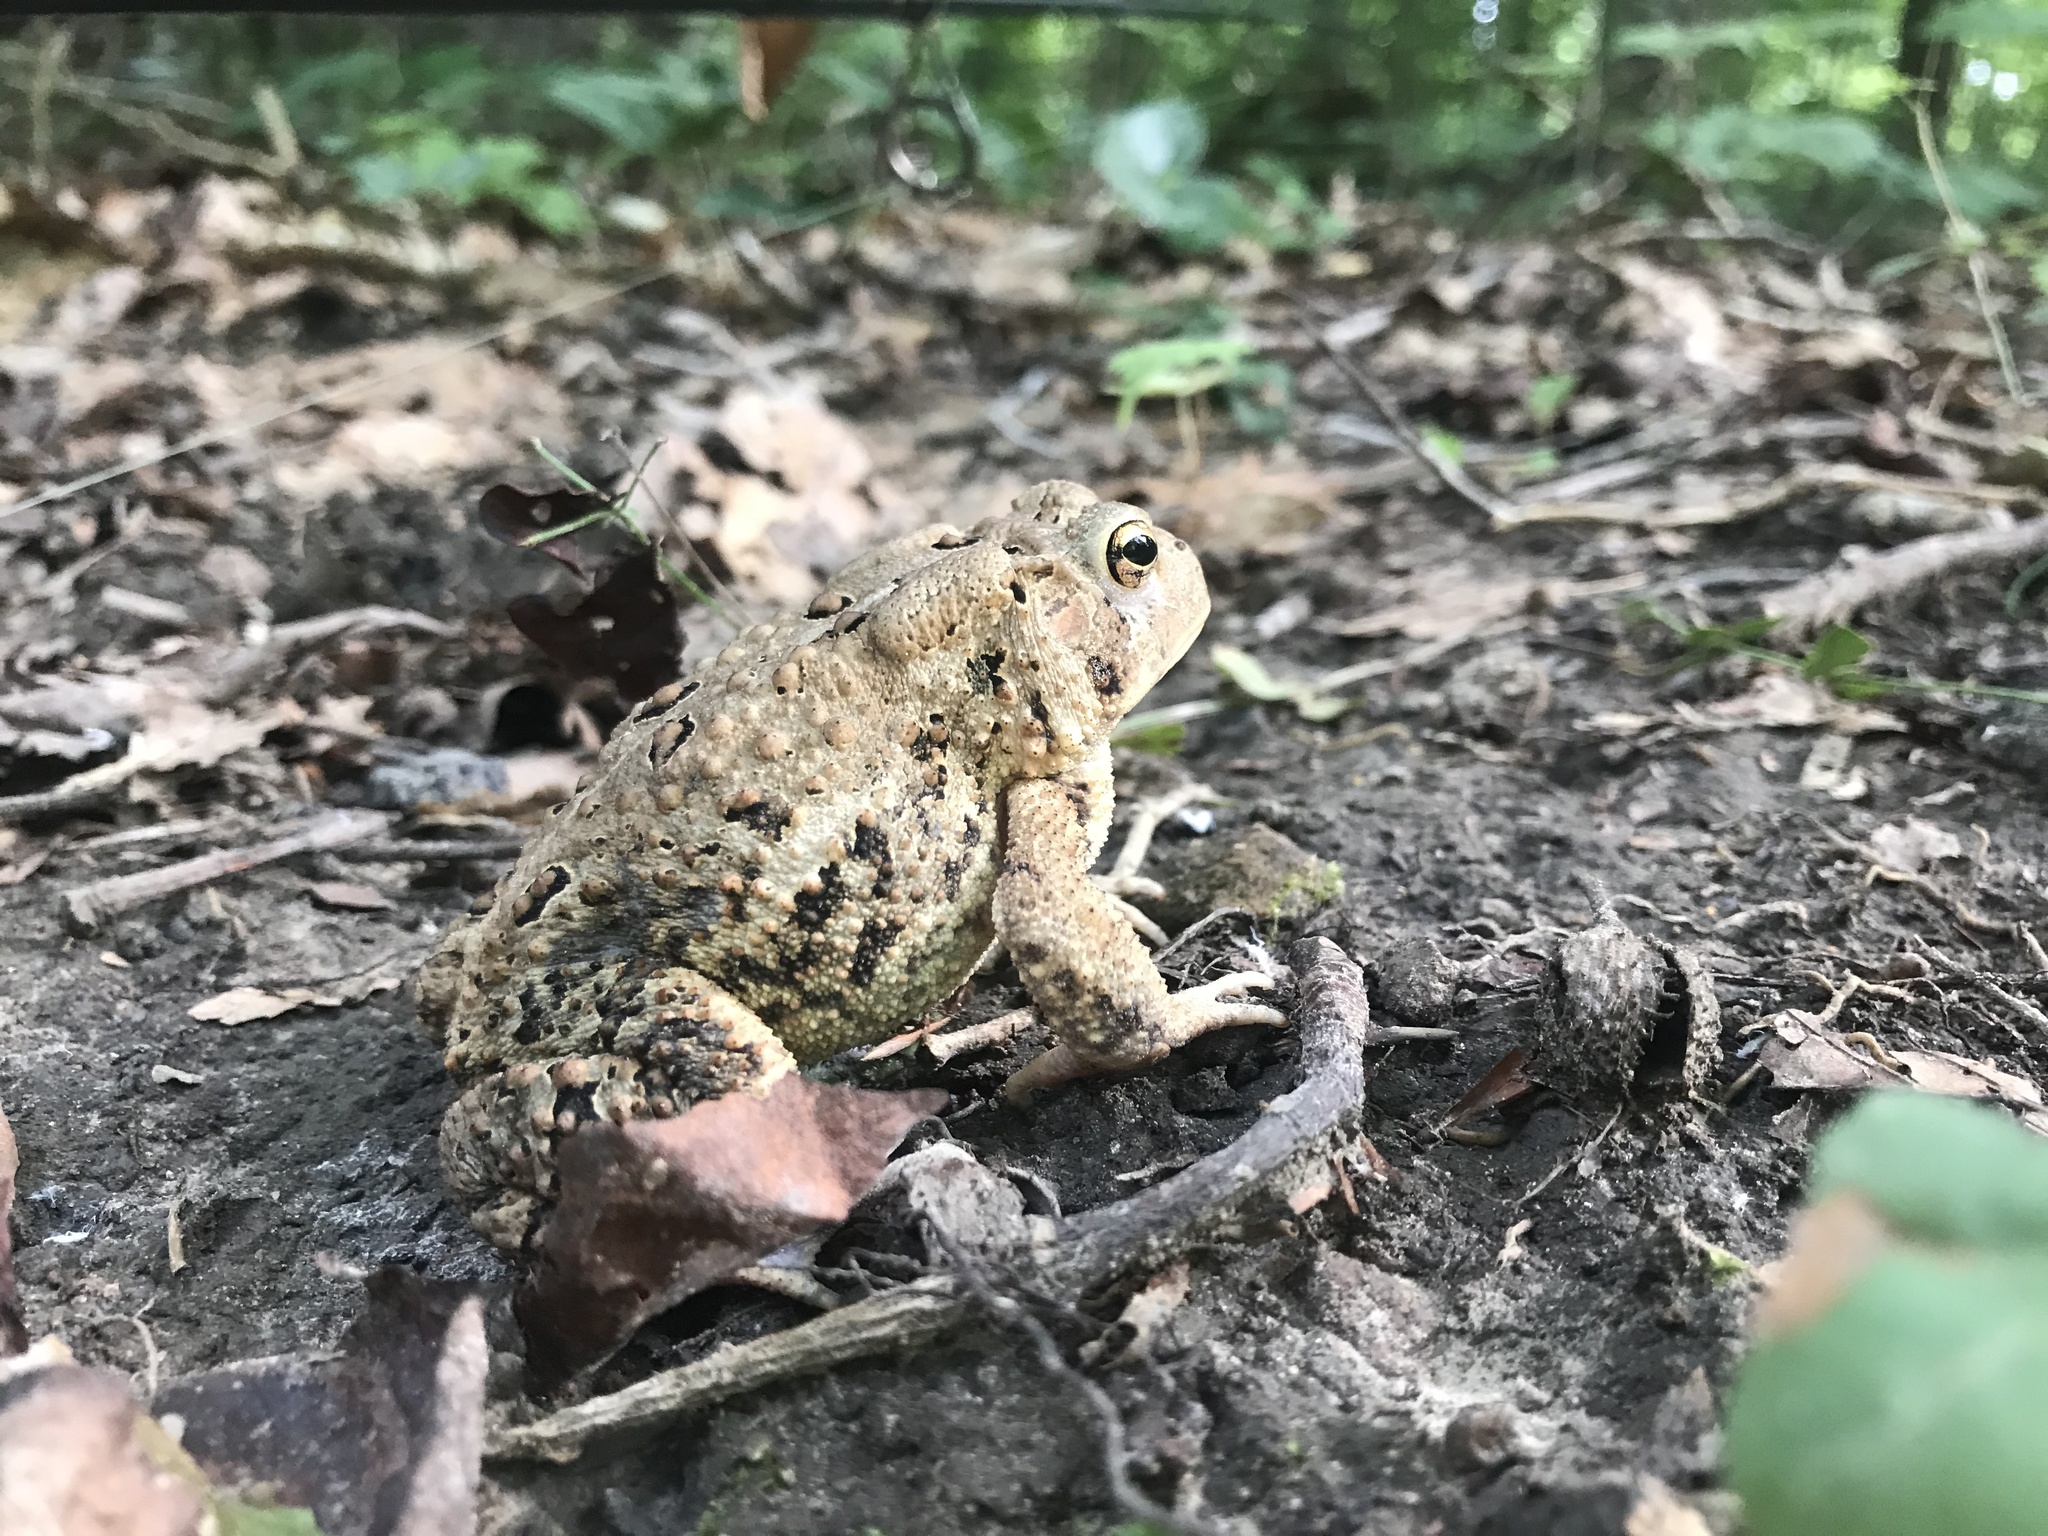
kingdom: Animalia
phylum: Chordata
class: Amphibia
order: Anura
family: Bufonidae
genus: Anaxyrus
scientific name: Anaxyrus americanus
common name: American toad
